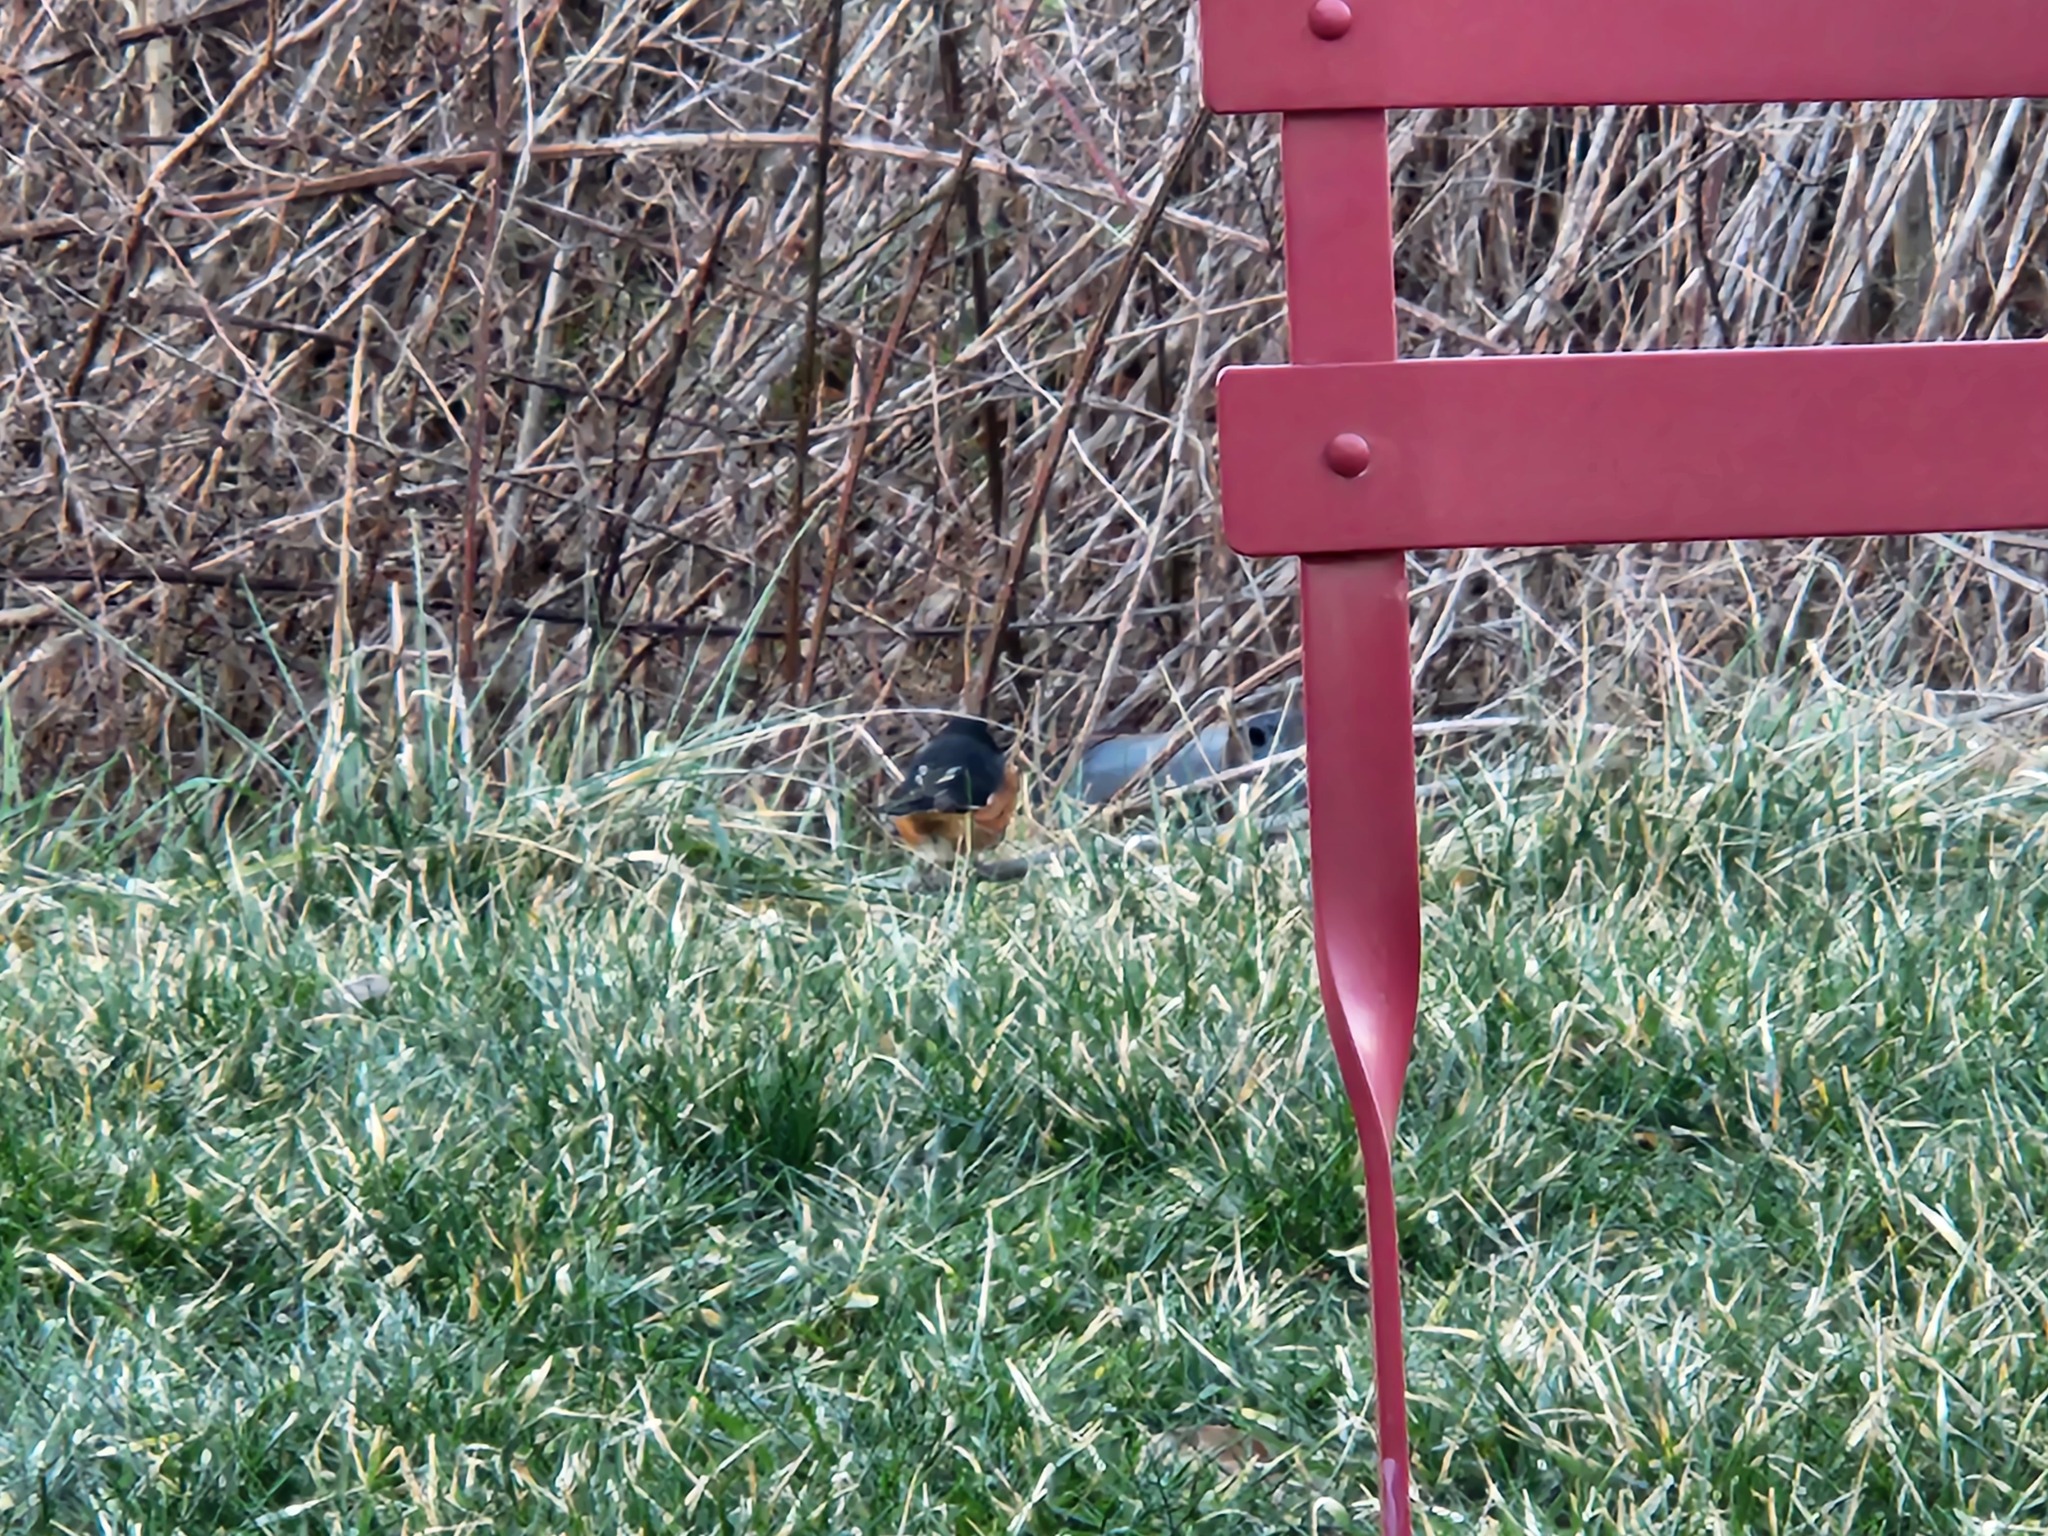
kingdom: Animalia
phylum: Chordata
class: Aves
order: Passeriformes
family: Passerellidae
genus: Pipilo
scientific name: Pipilo erythrophthalmus
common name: Eastern towhee
